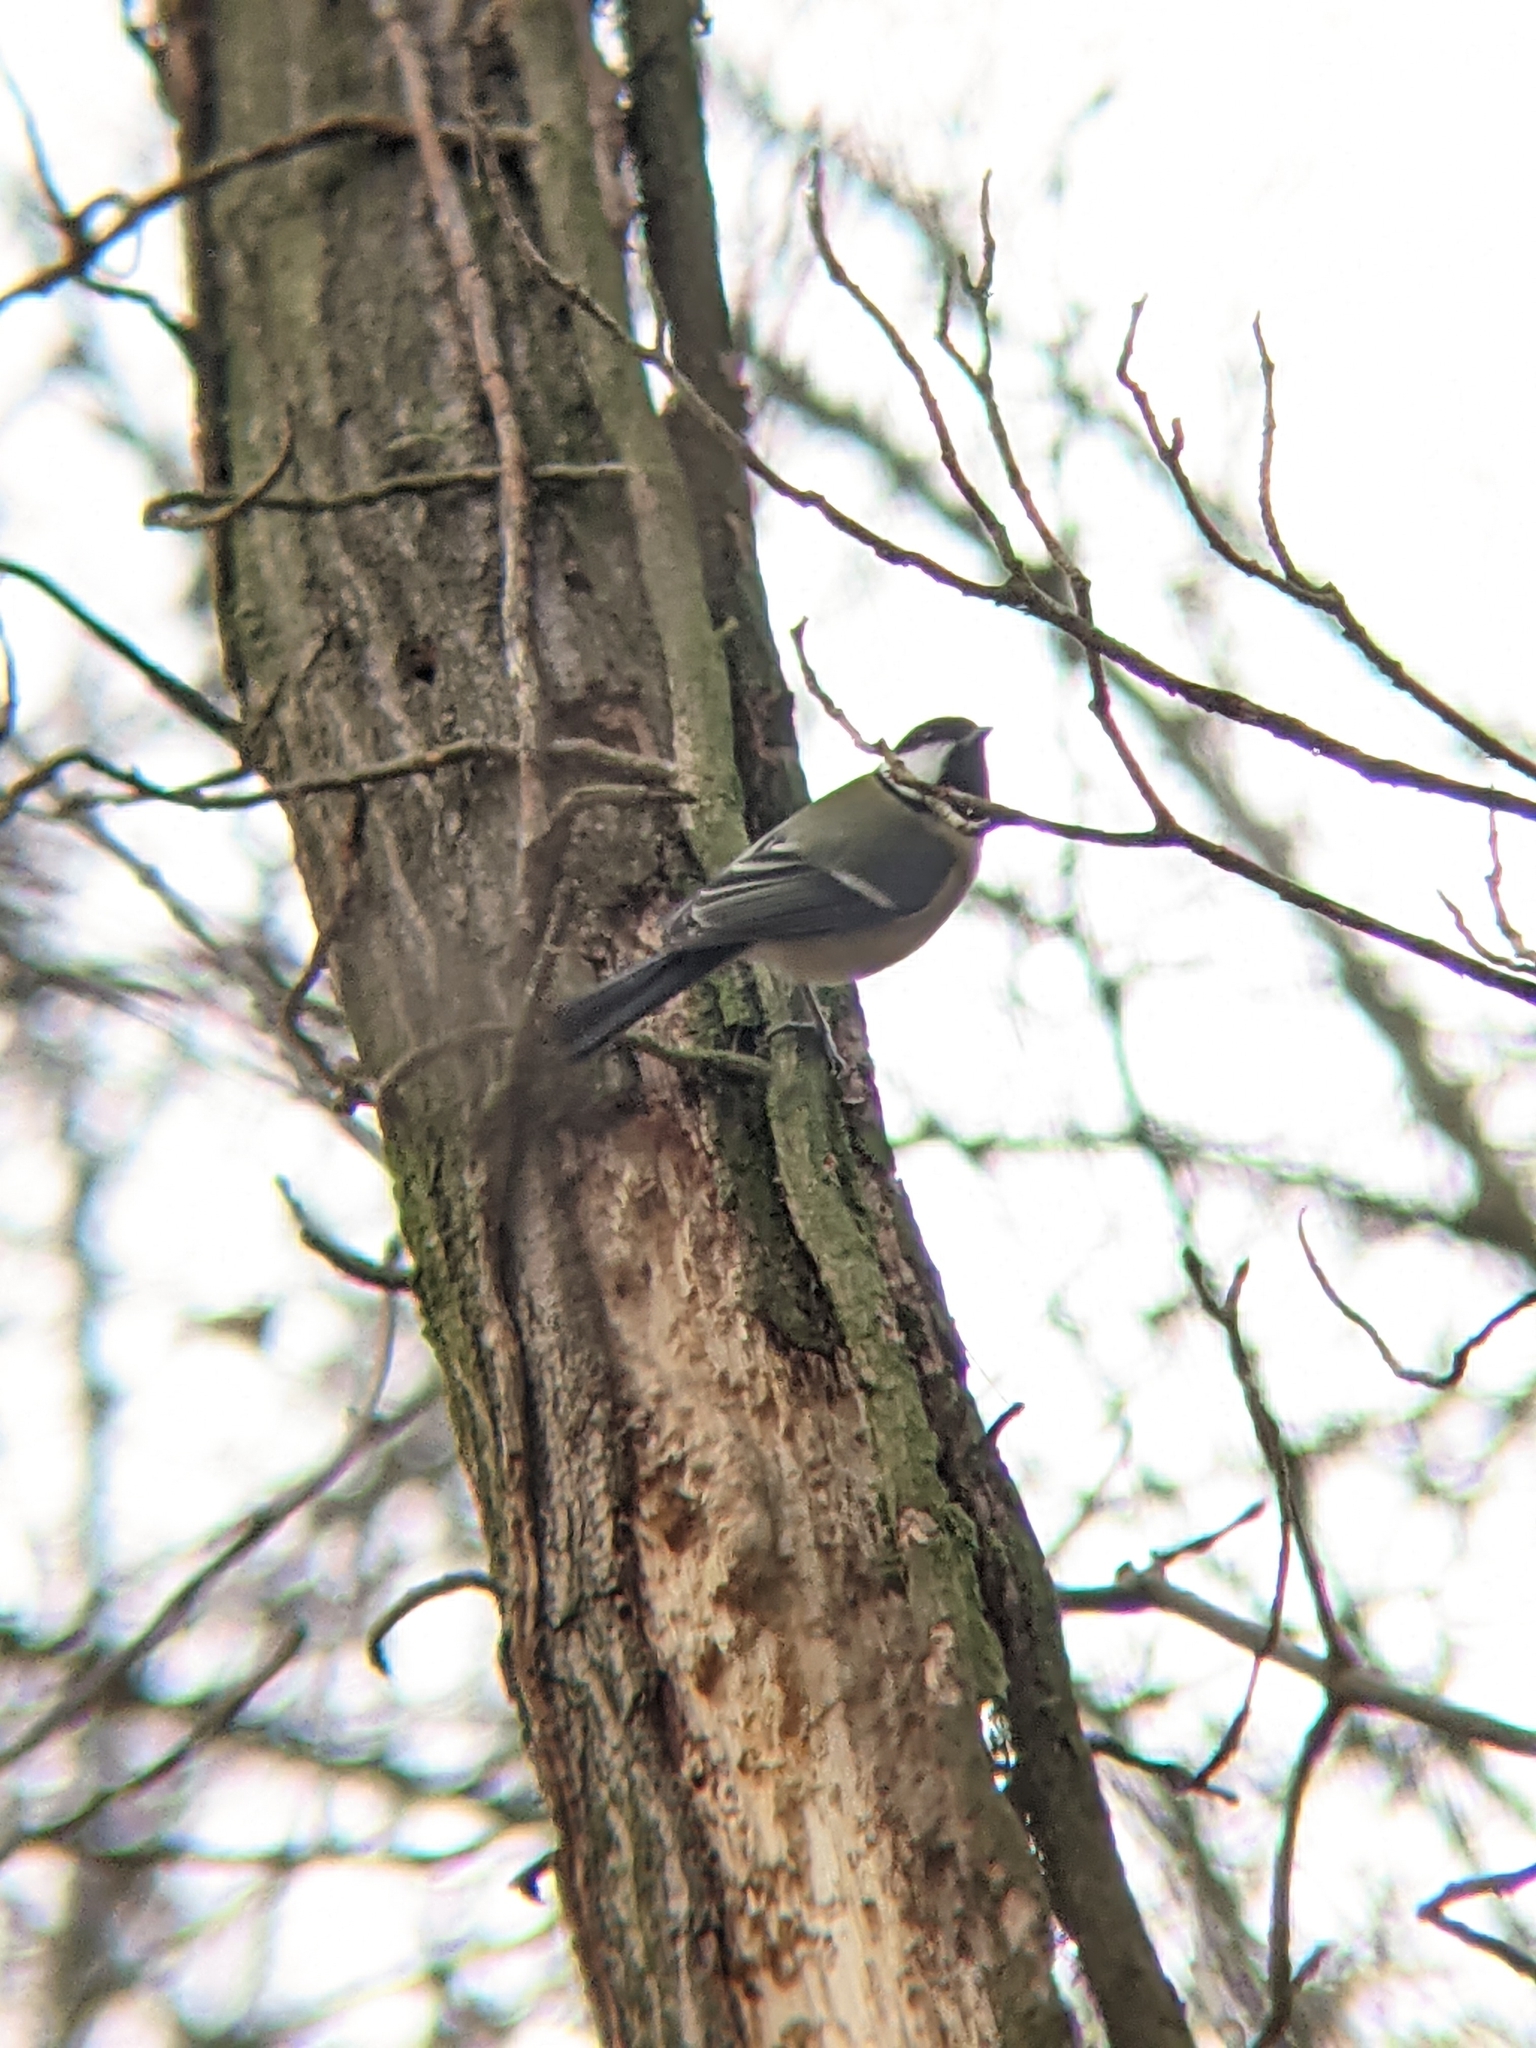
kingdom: Animalia
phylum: Chordata
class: Aves
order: Passeriformes
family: Paridae
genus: Parus
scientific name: Parus major
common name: Great tit
